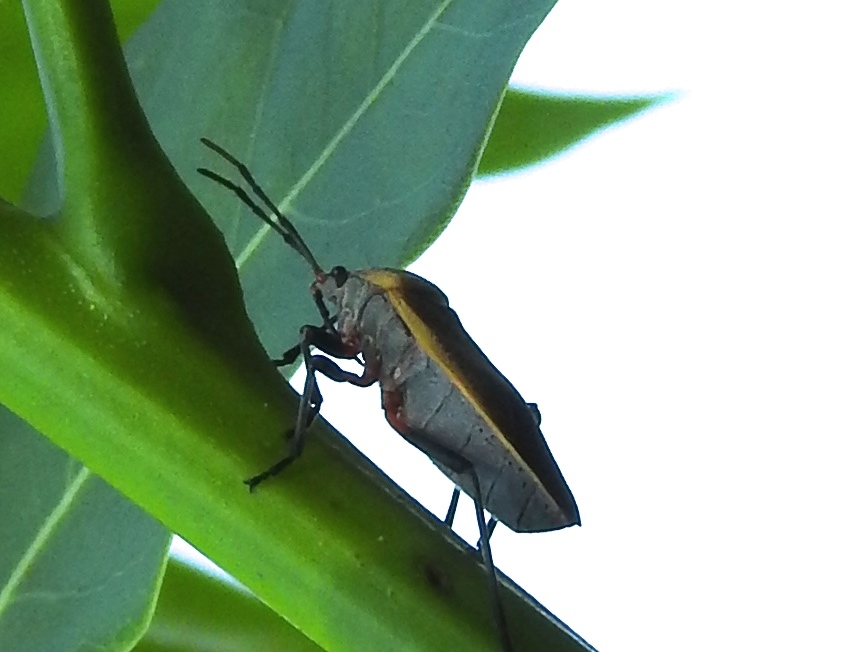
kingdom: Animalia
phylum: Arthropoda
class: Insecta
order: Hemiptera
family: Largidae
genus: Largus
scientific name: Largus
